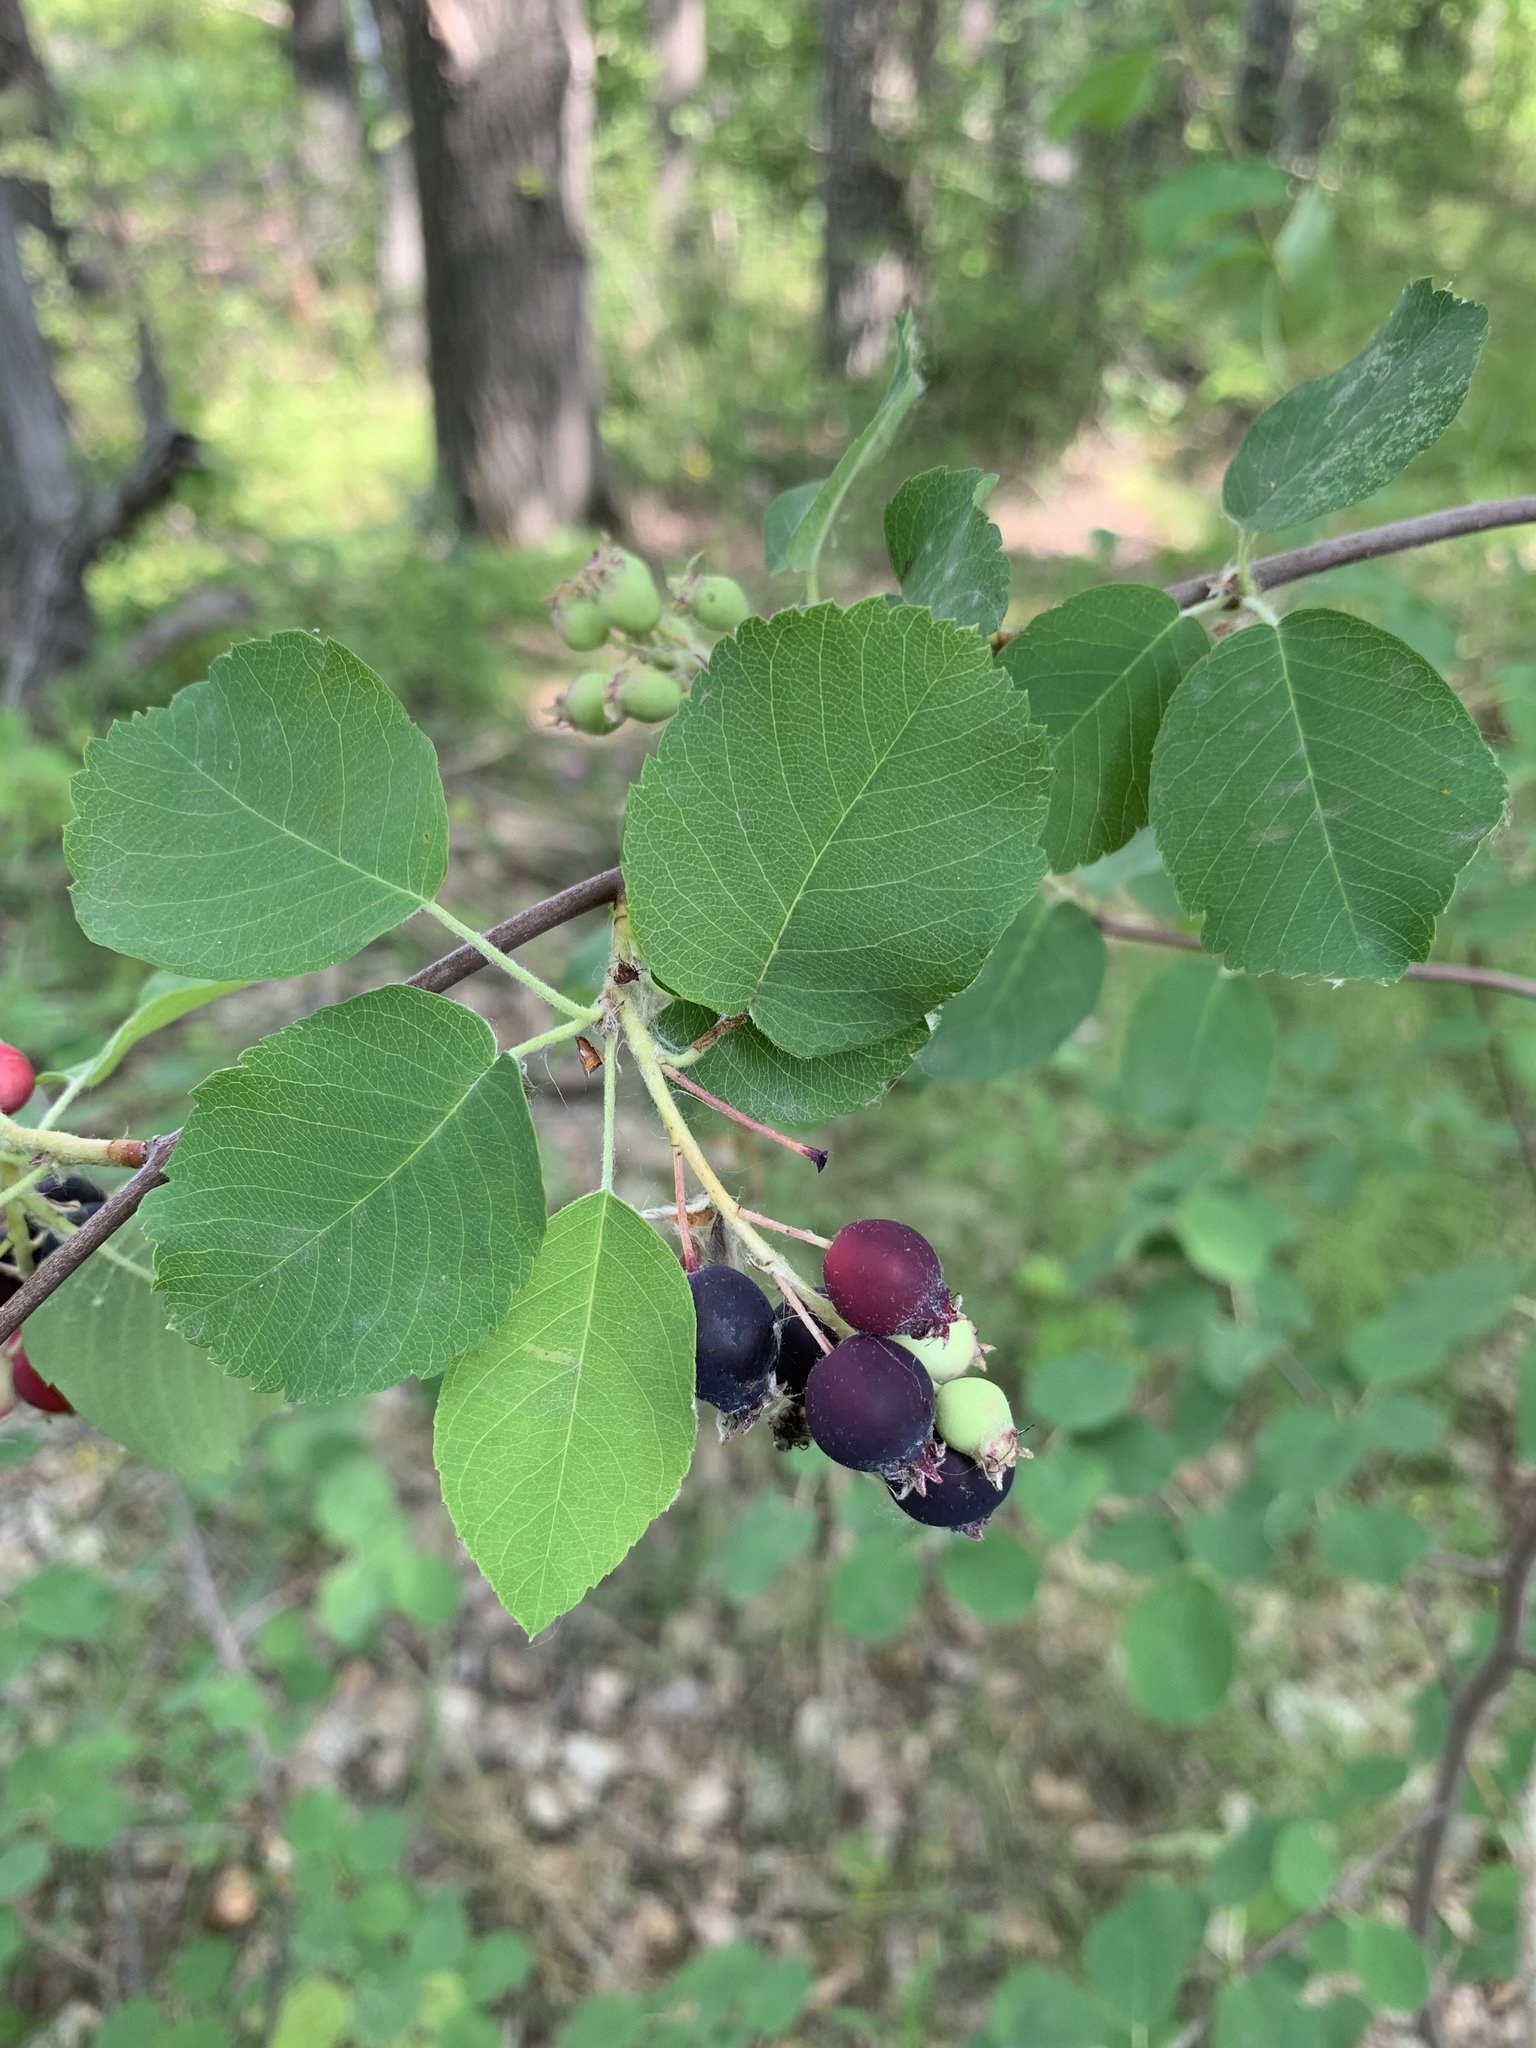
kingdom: Plantae
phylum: Tracheophyta
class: Magnoliopsida
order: Rosales
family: Rosaceae
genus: Amelanchier
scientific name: Amelanchier alnifolia
